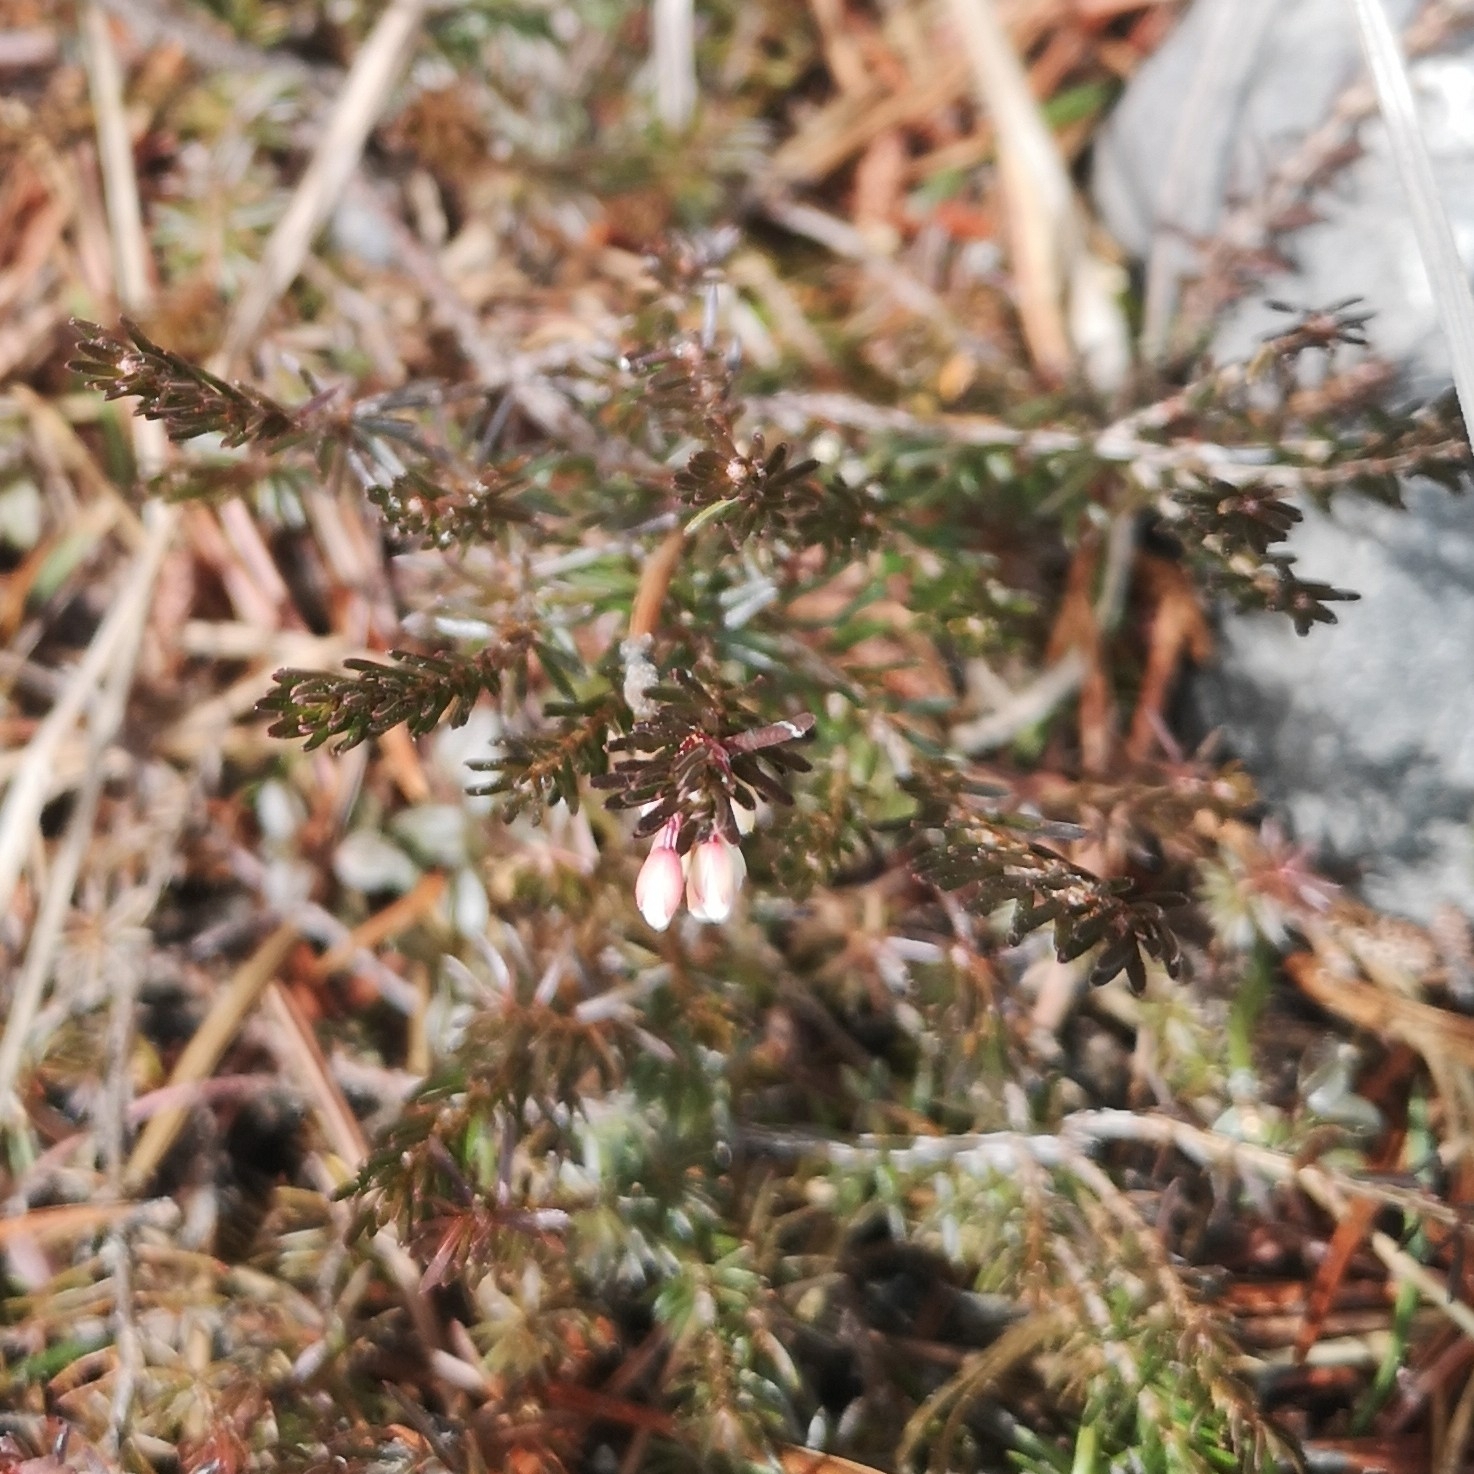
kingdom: Plantae
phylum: Tracheophyta
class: Magnoliopsida
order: Ericales
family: Ericaceae
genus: Erica
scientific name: Erica carnea
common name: Winter heath
